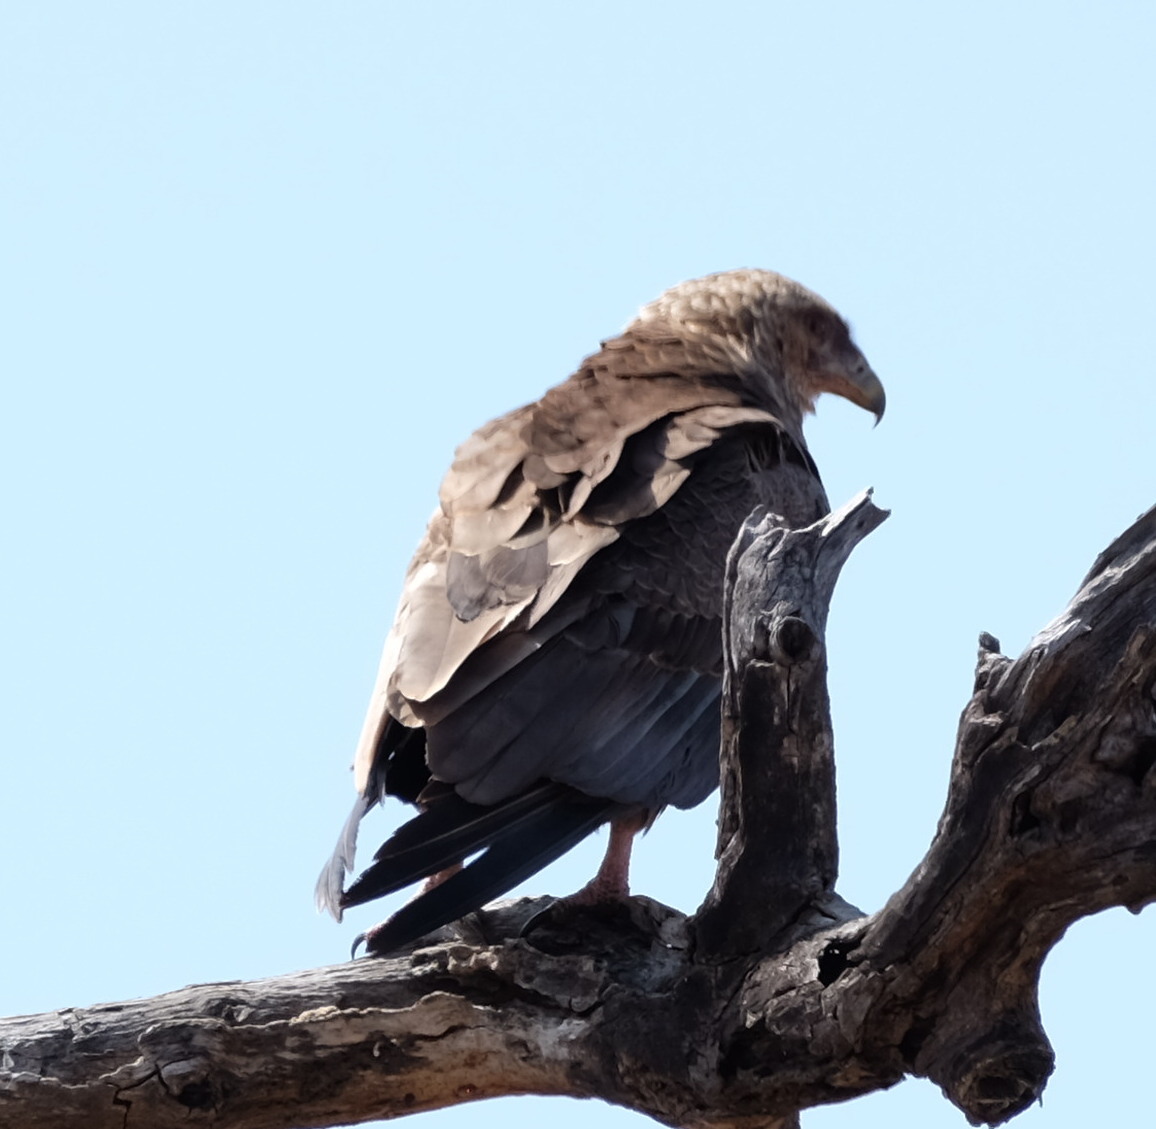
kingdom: Animalia
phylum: Chordata
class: Aves
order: Accipitriformes
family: Accipitridae
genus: Terathopius
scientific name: Terathopius ecaudatus
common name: Bateleur
